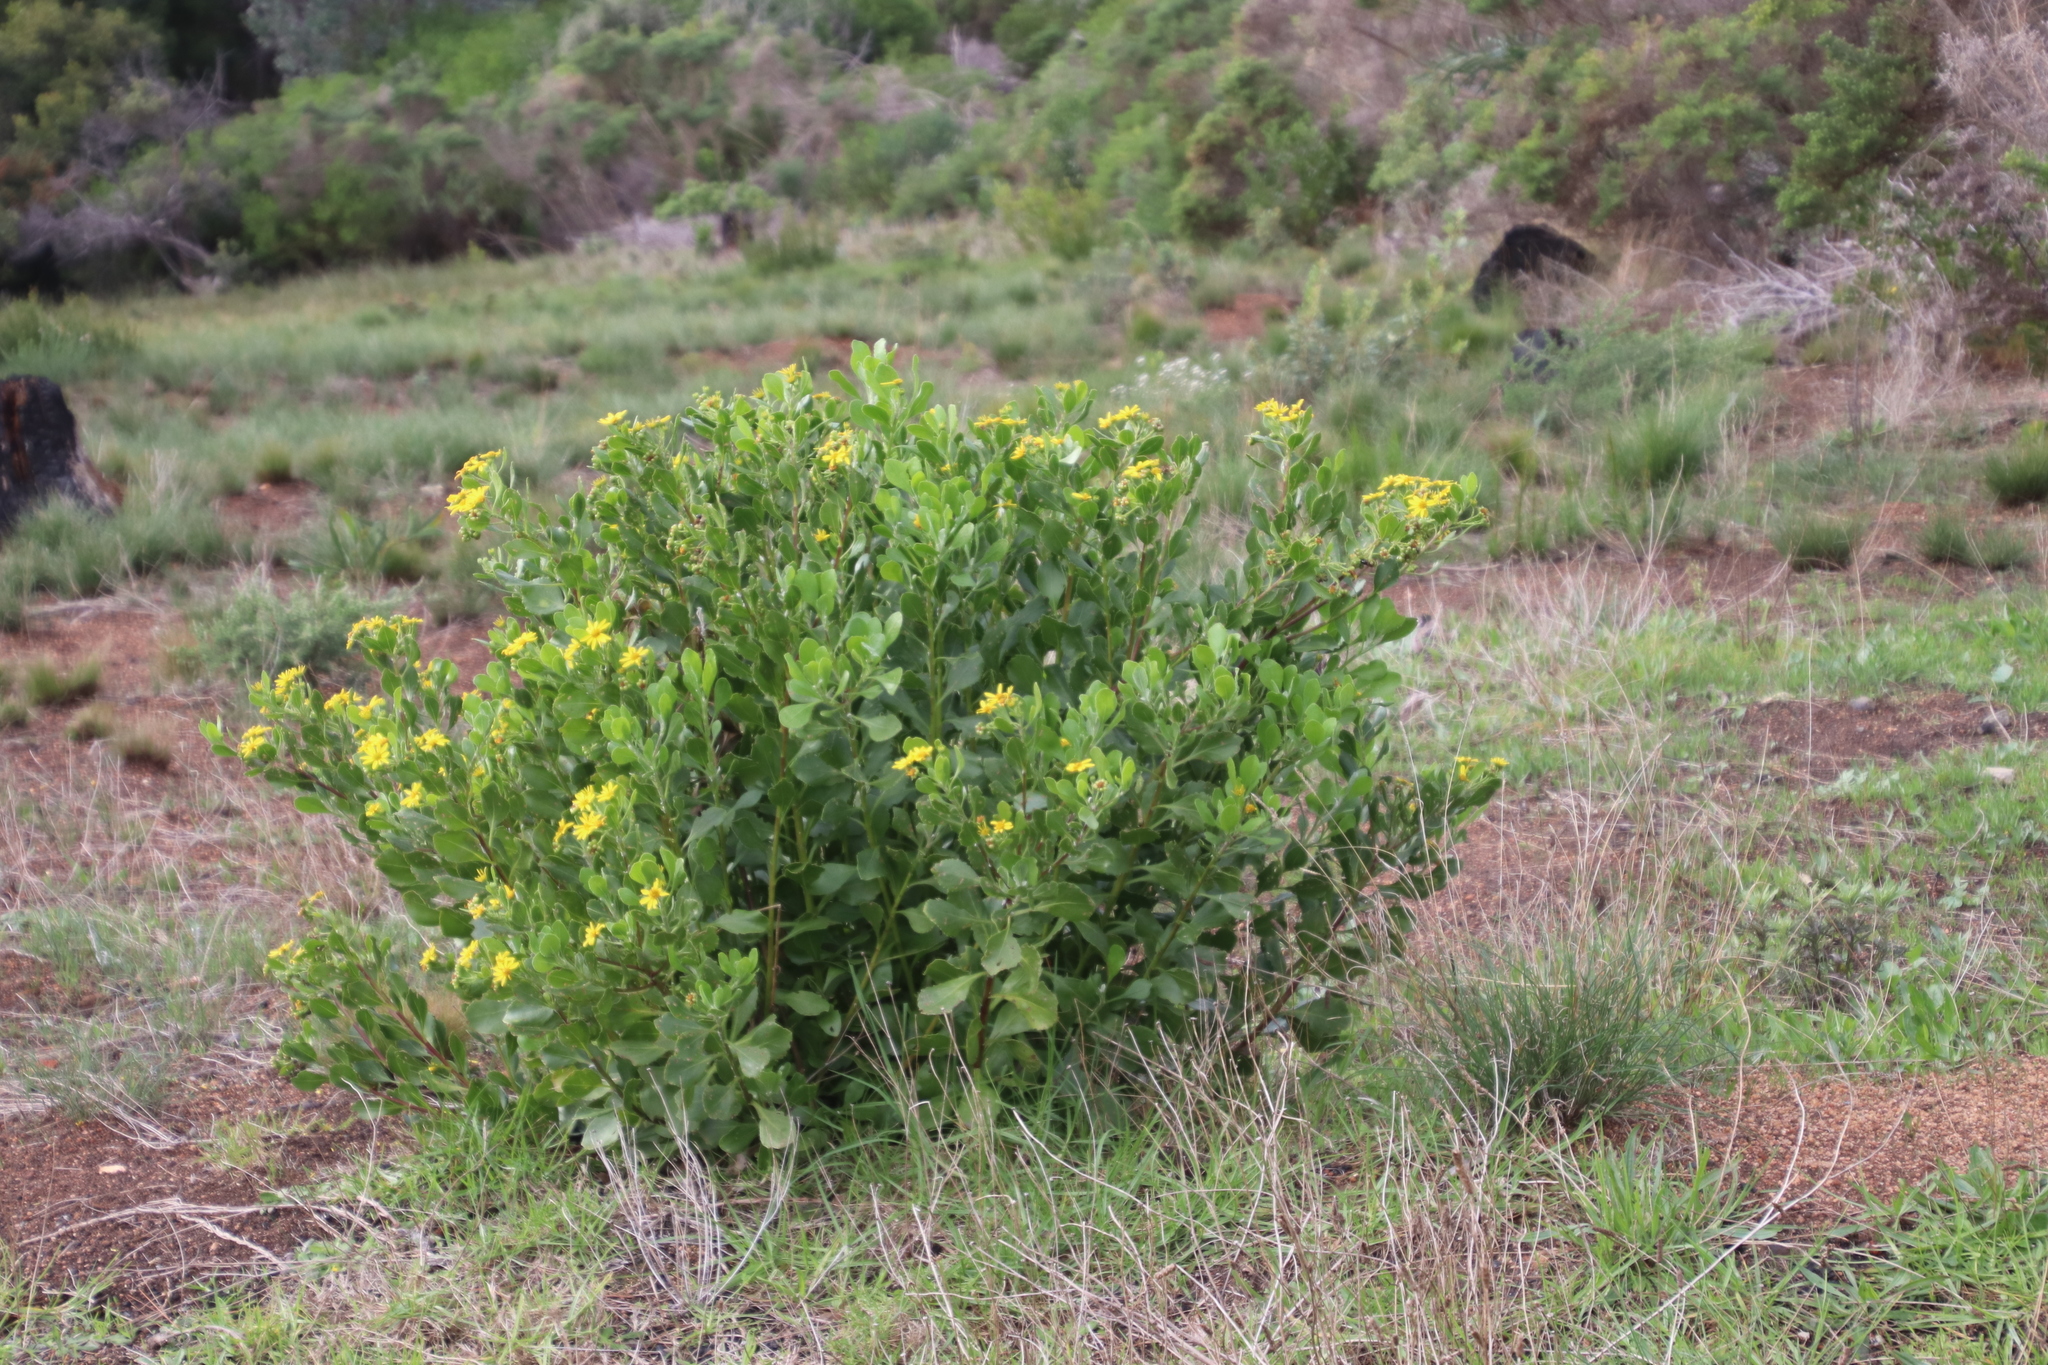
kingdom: Plantae
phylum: Tracheophyta
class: Magnoliopsida
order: Asterales
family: Asteraceae
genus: Osteospermum
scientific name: Osteospermum moniliferum
